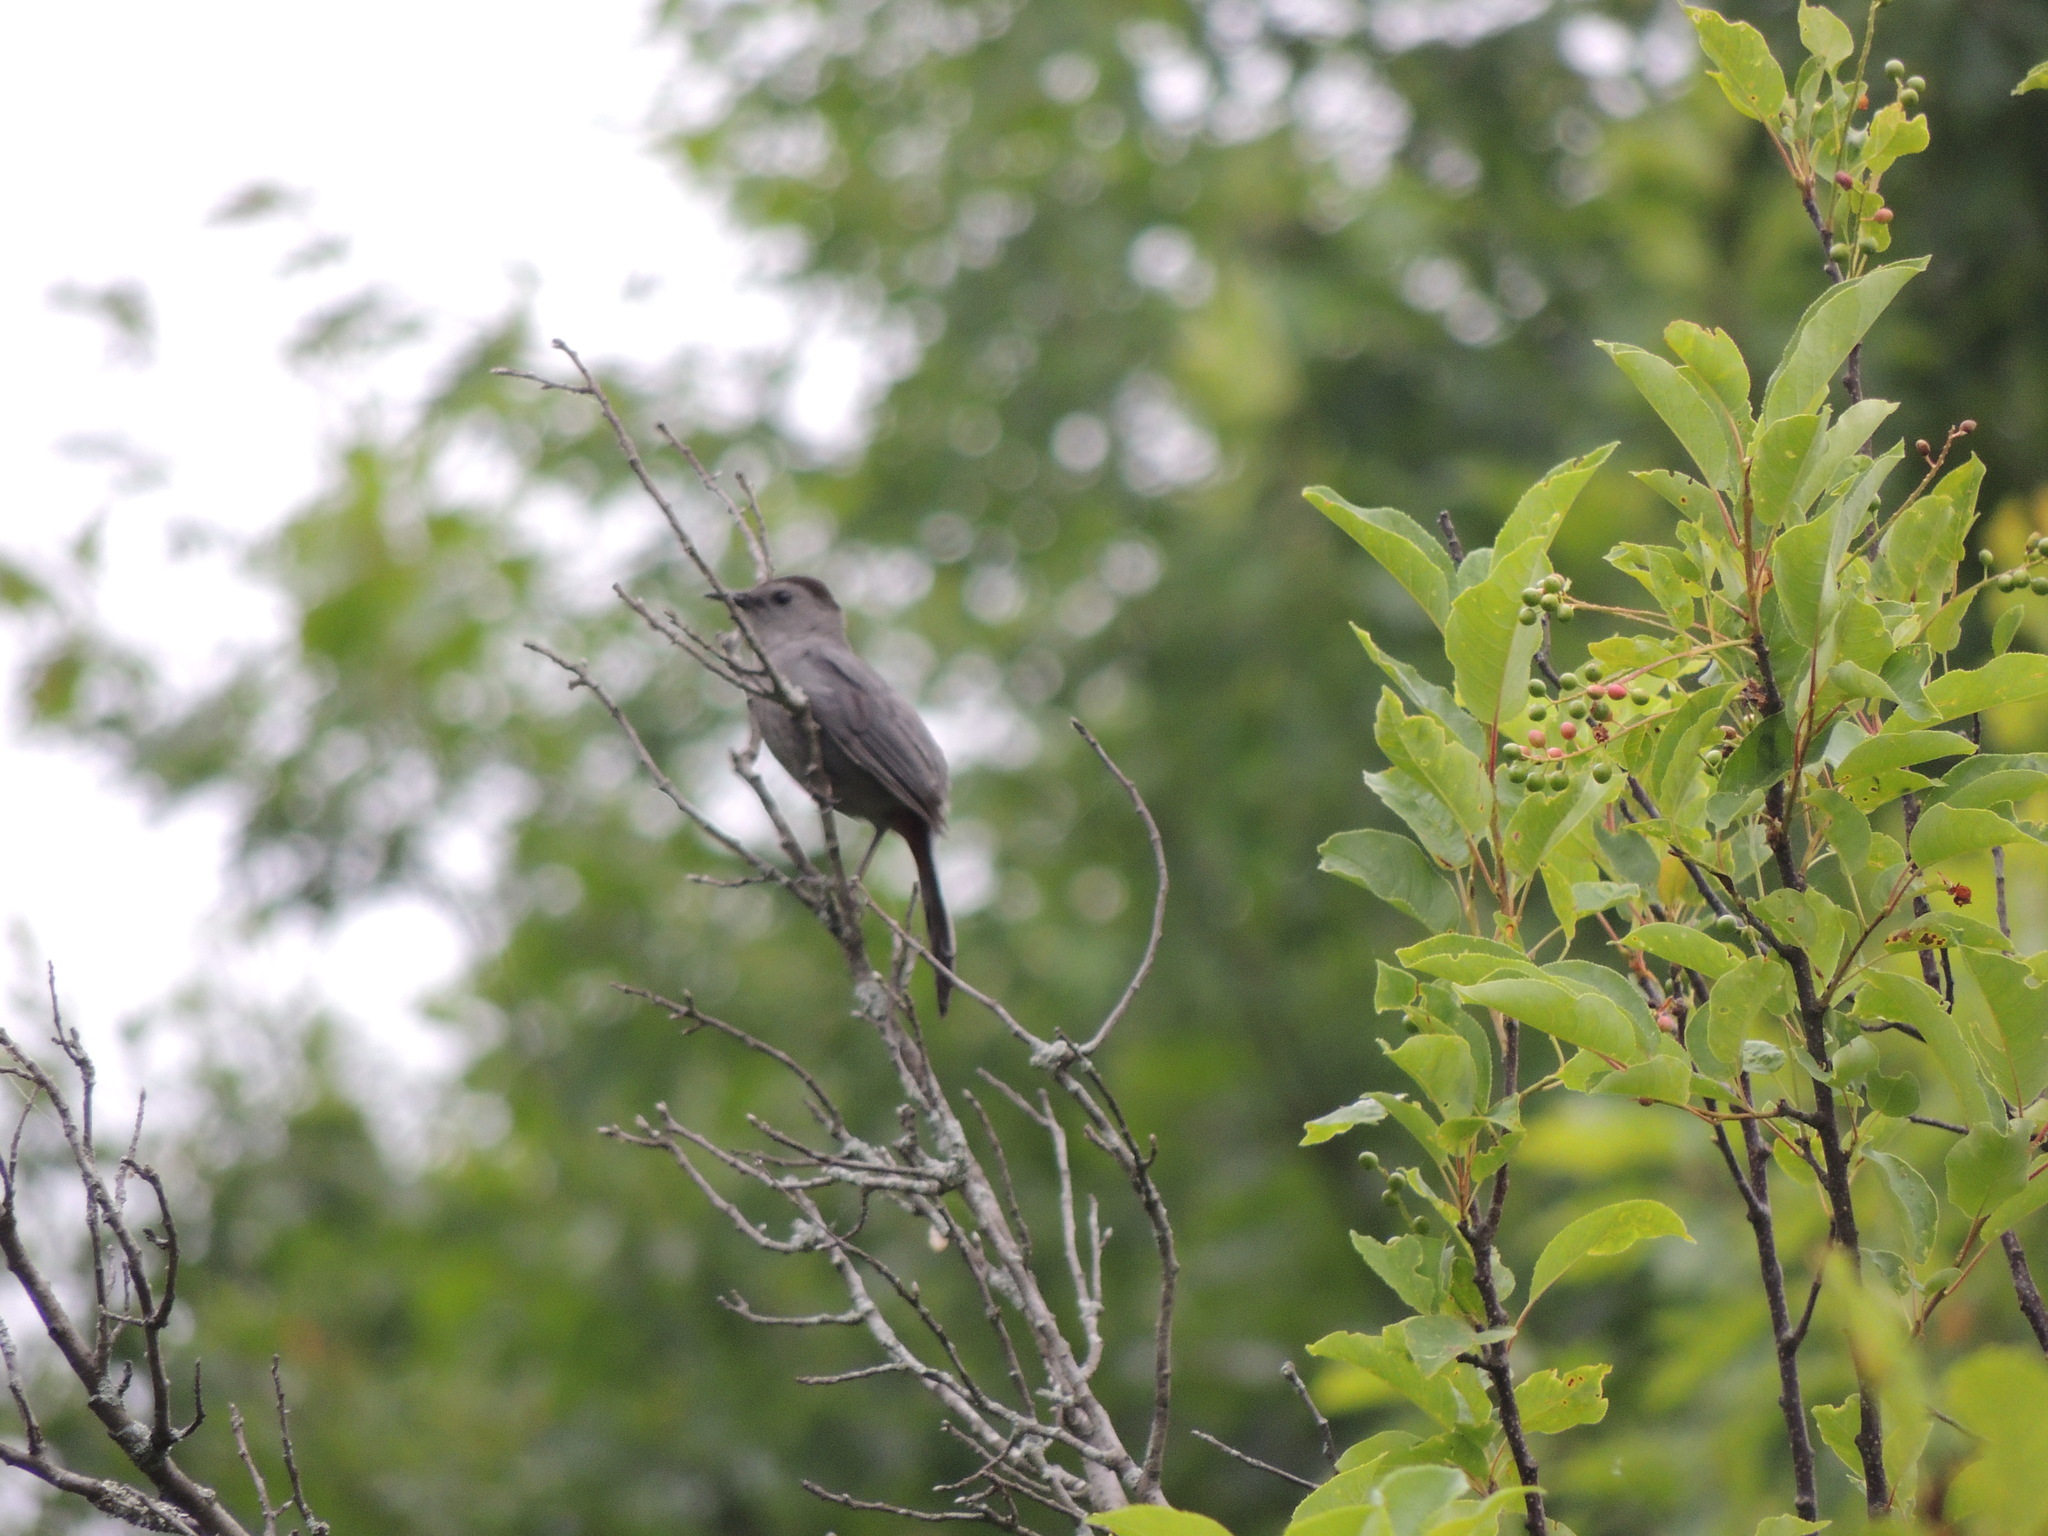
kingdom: Animalia
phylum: Chordata
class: Aves
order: Passeriformes
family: Mimidae
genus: Dumetella
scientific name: Dumetella carolinensis
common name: Gray catbird
